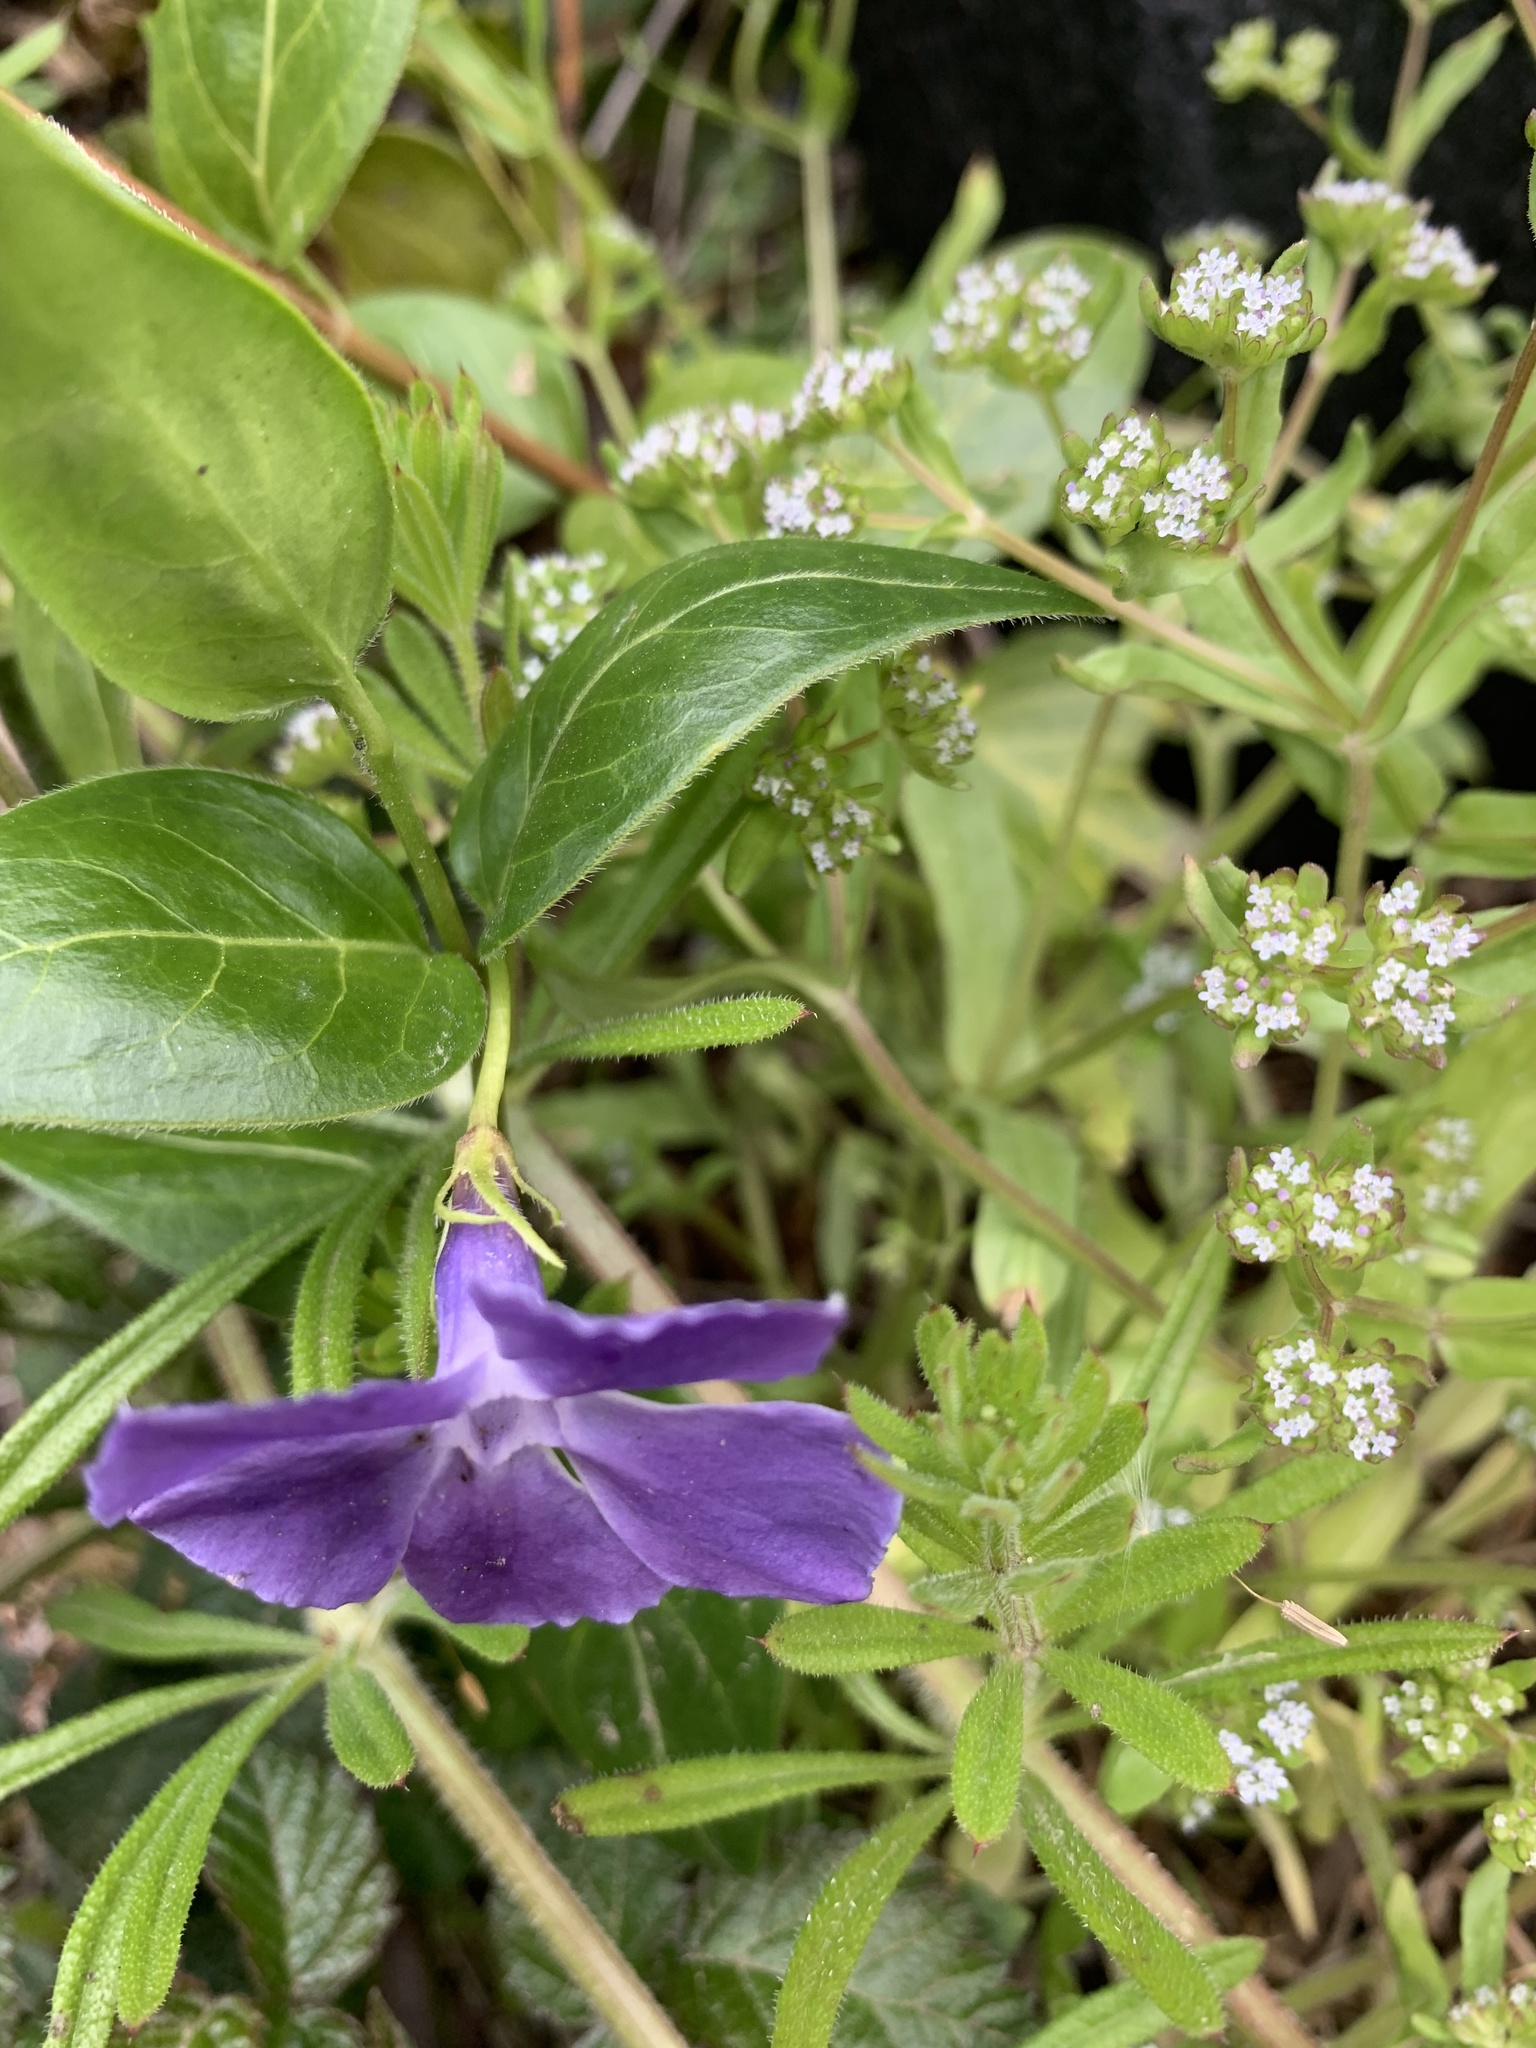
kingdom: Plantae
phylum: Tracheophyta
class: Magnoliopsida
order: Gentianales
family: Apocynaceae
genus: Vinca
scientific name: Vinca major
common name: Greater periwinkle
